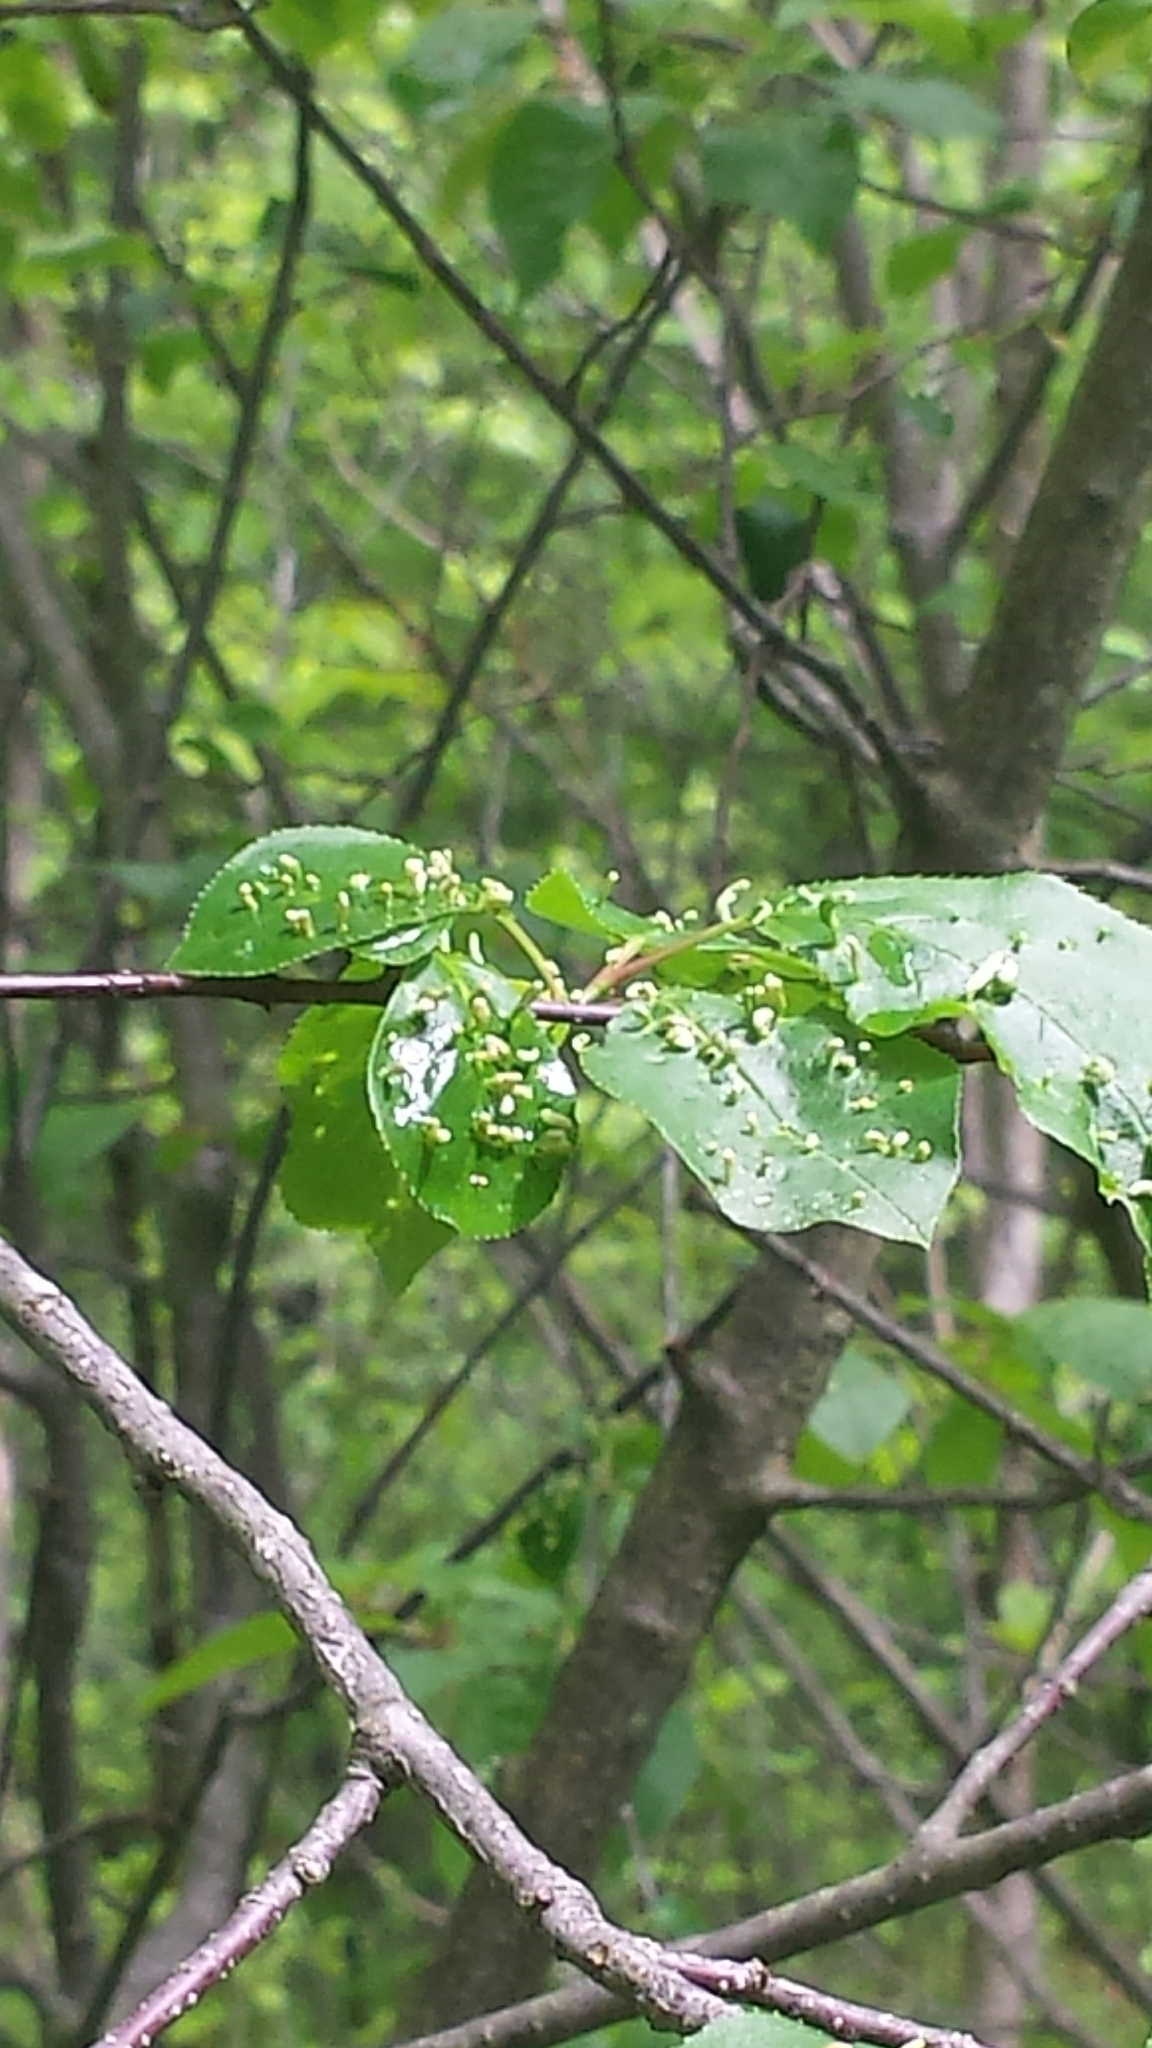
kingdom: Animalia
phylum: Arthropoda
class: Arachnida
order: Trombidiformes
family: Eriophyidae
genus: Eriophyes
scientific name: Eriophyes emarginatae
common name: Plum leaf gall mite
